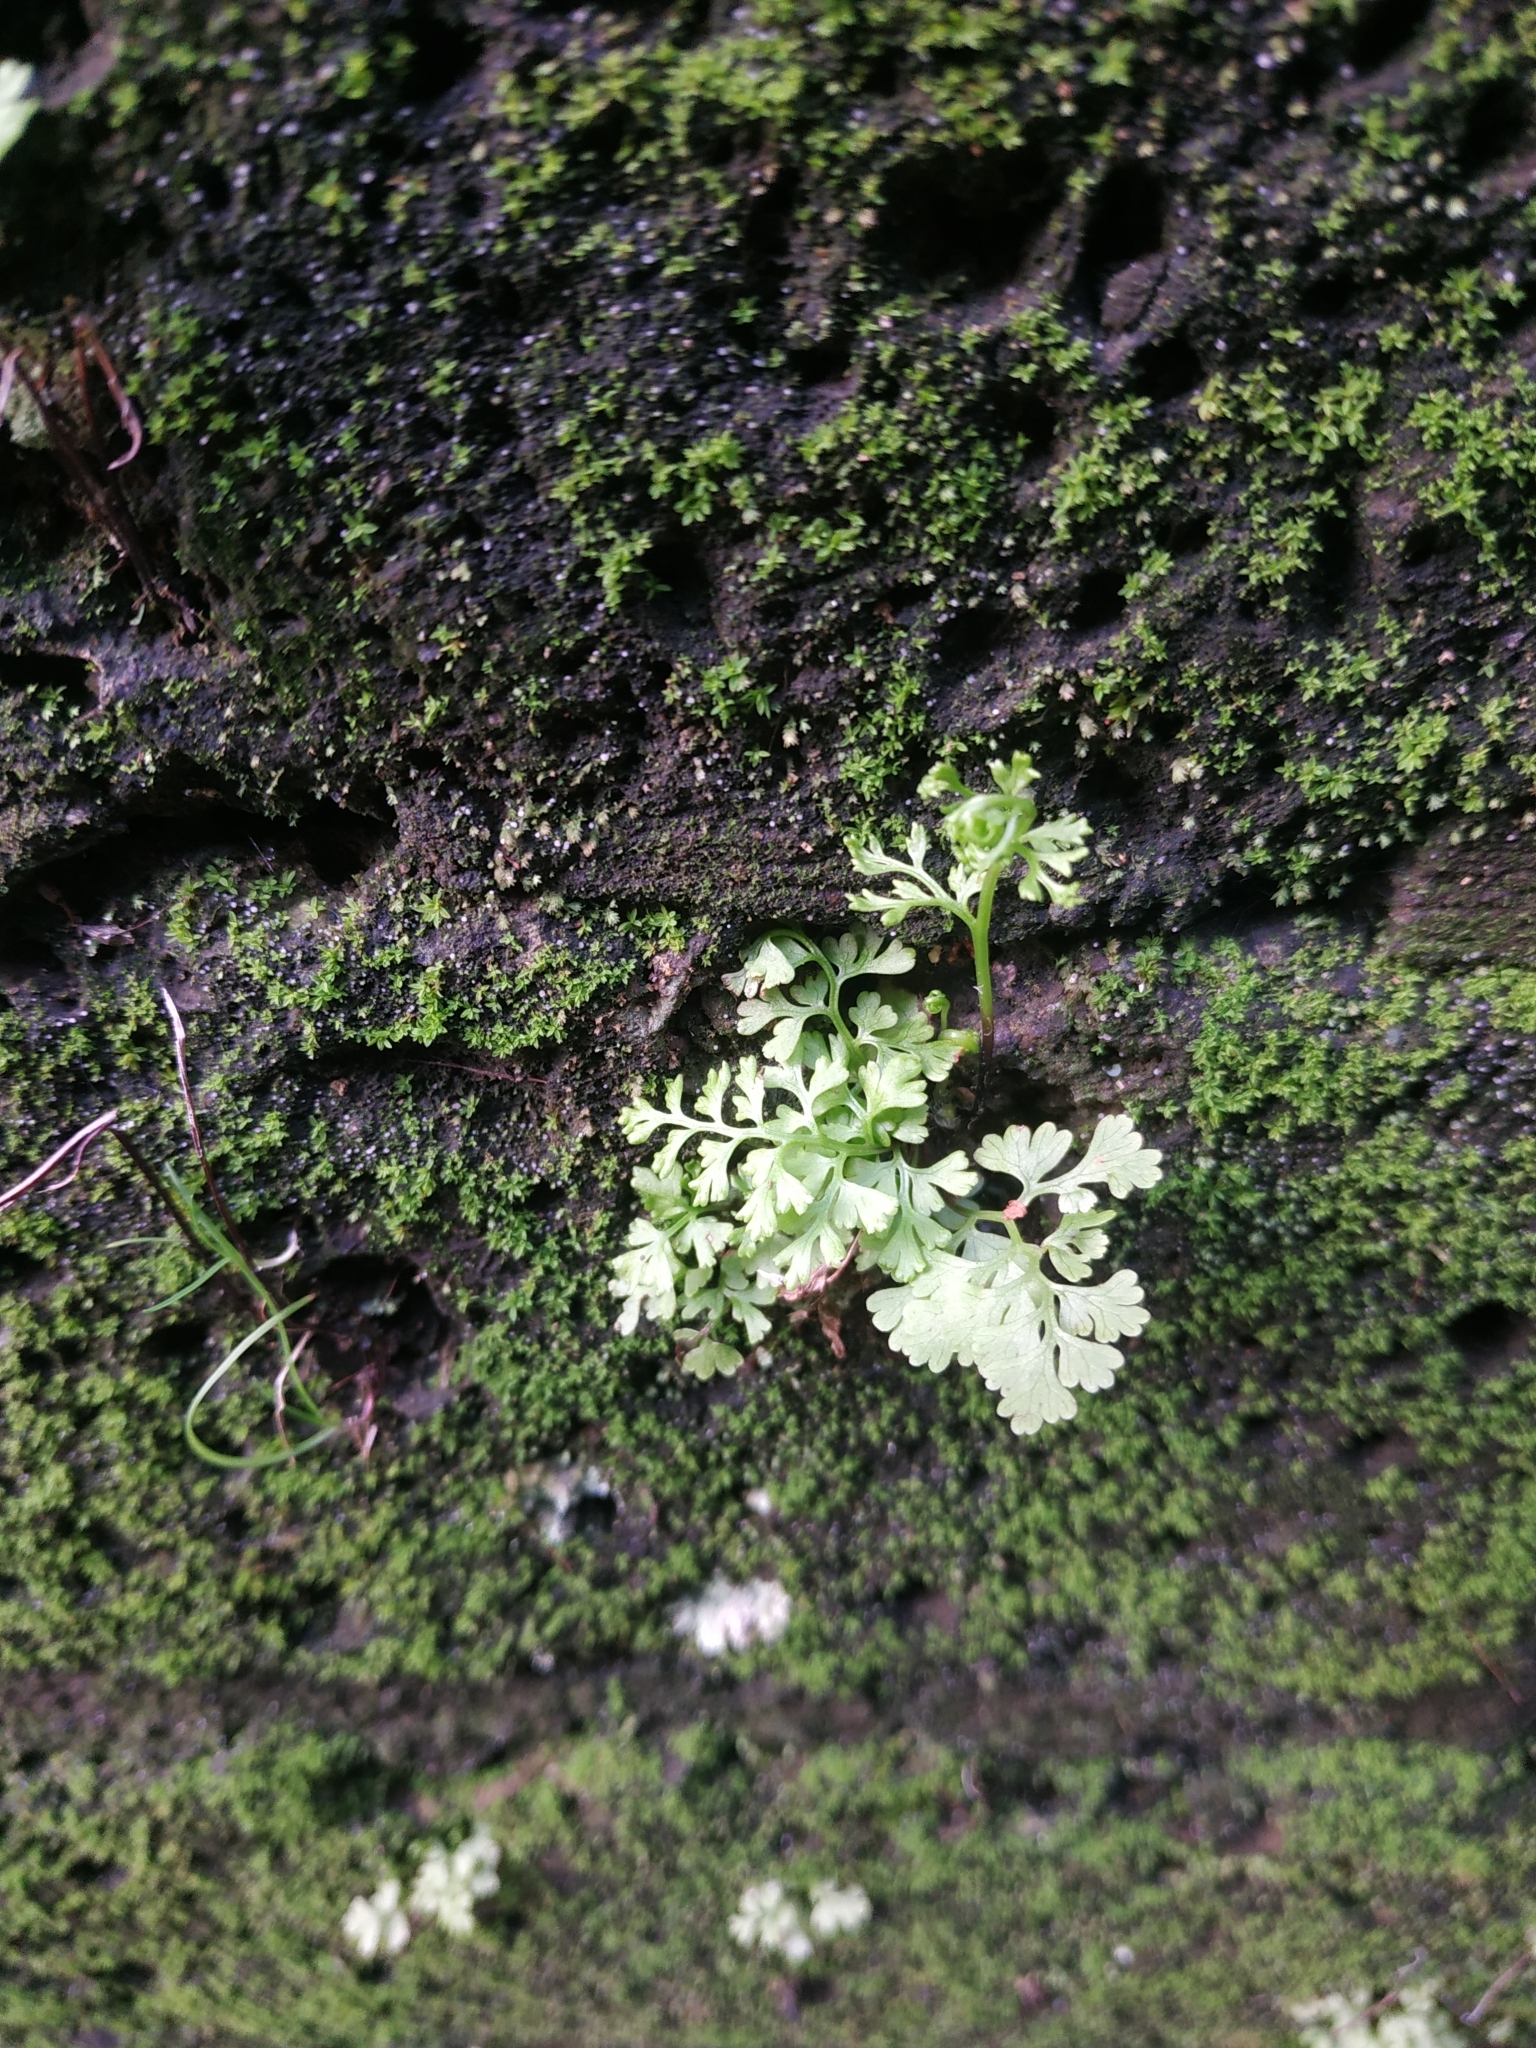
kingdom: Plantae
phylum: Tracheophyta
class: Polypodiopsida
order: Polypodiales
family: Pteridaceae
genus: Anogramma
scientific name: Anogramma leptophylla
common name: Jersey fern
